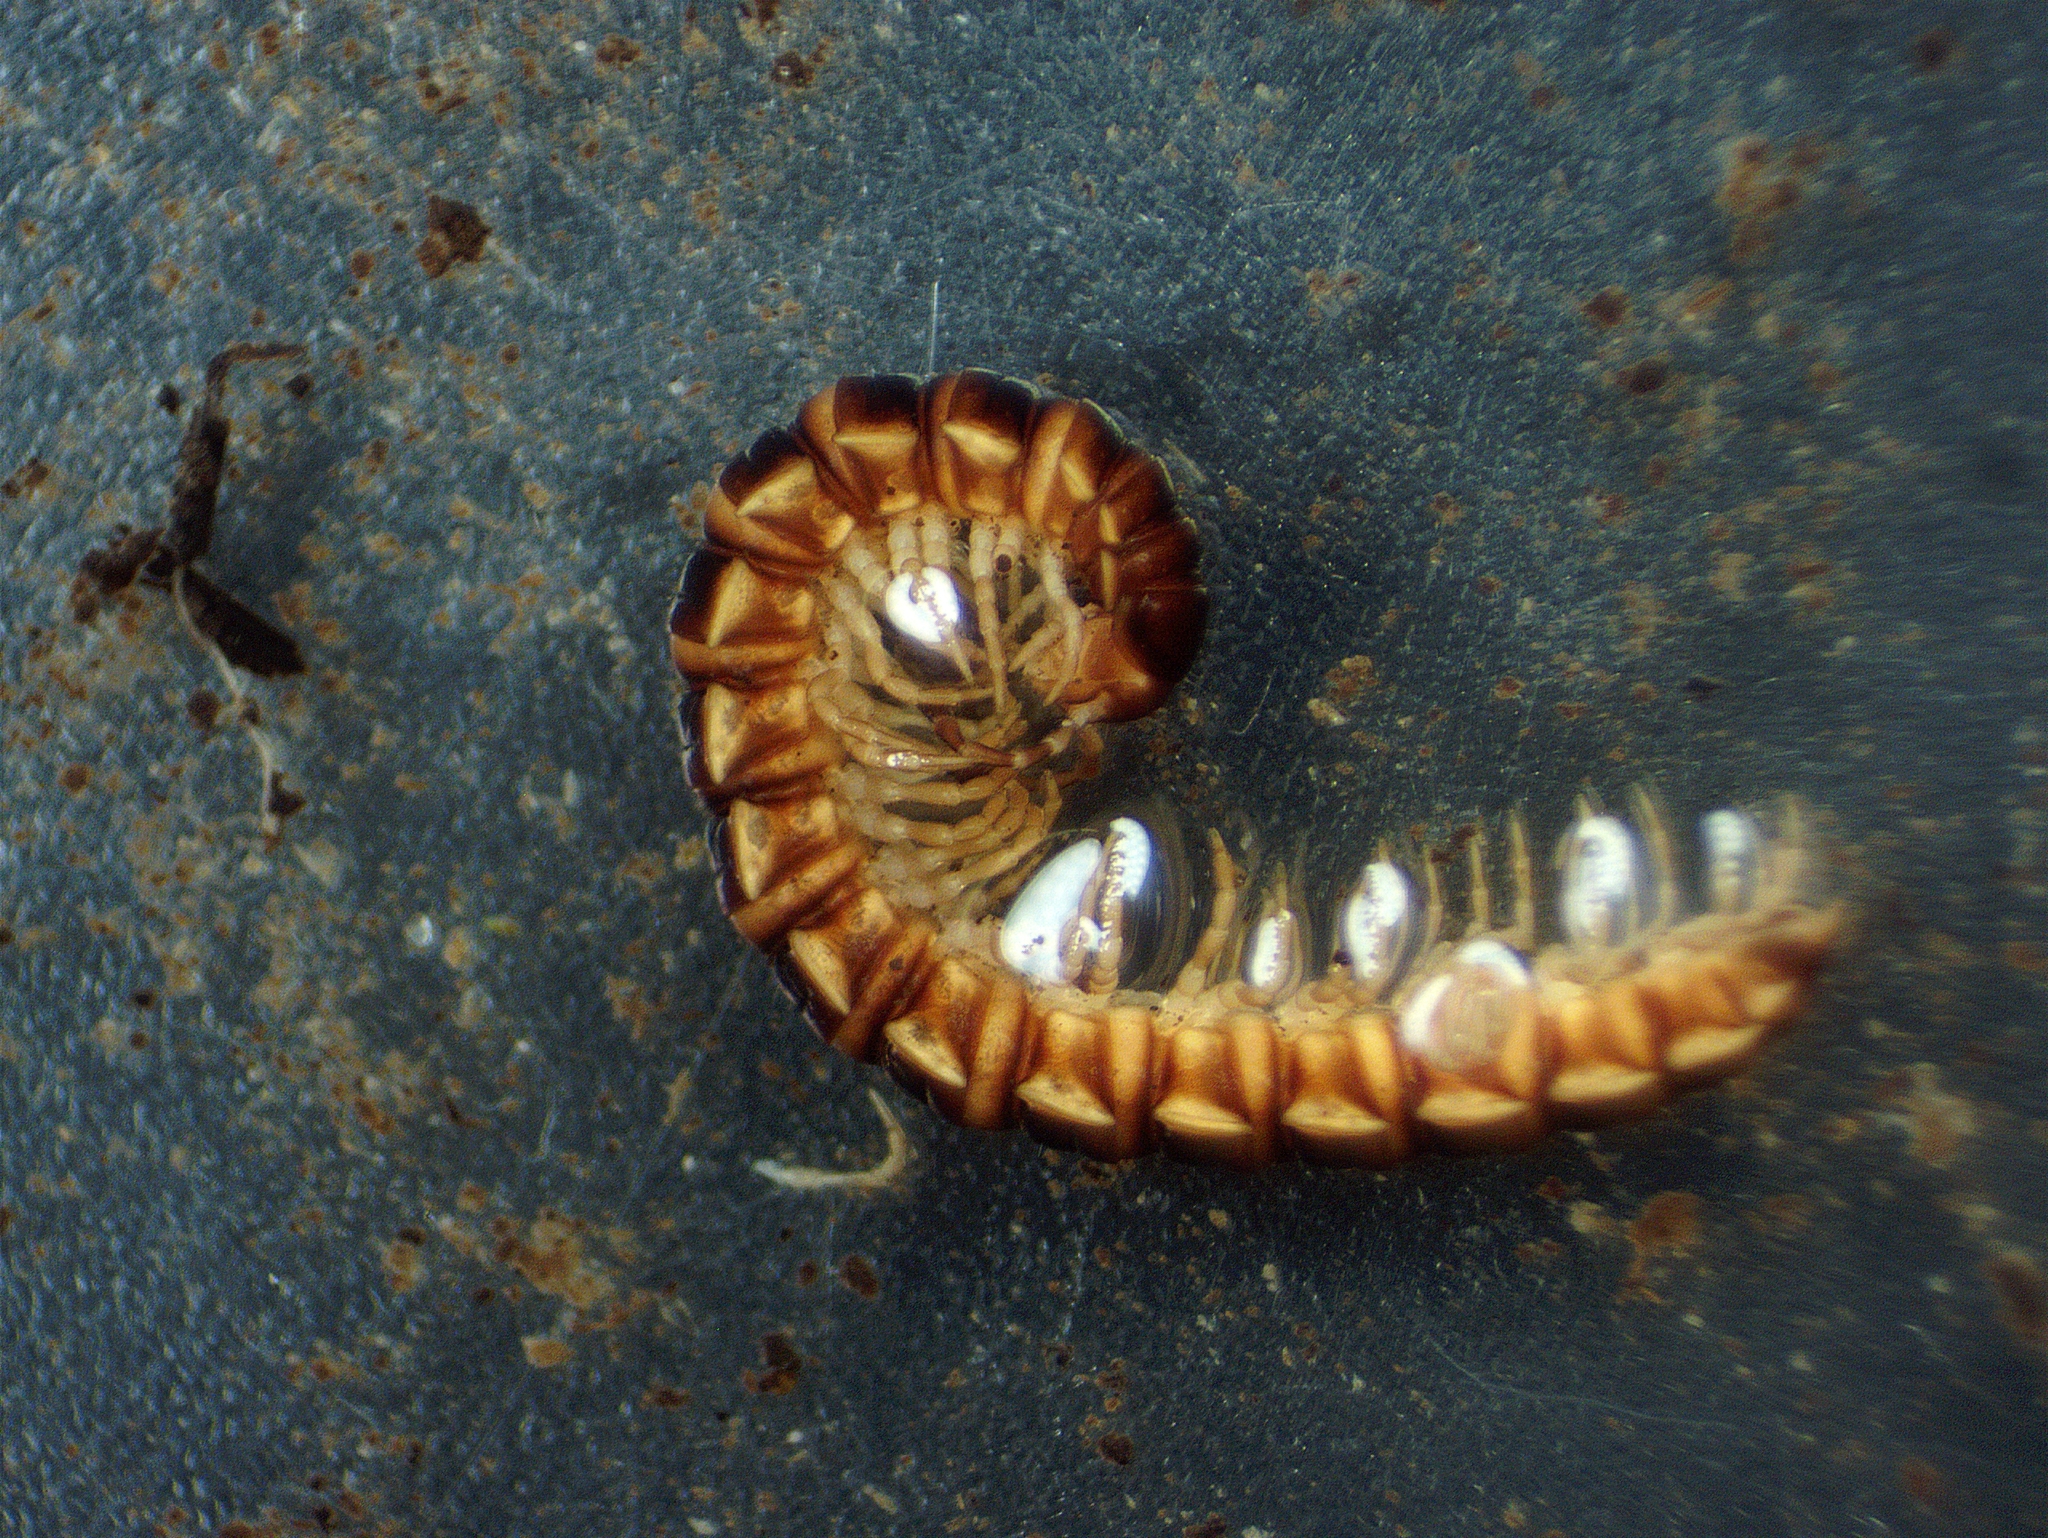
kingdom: Animalia
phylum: Arthropoda
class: Diplopoda
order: Polydesmida
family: Paradoxosomatidae
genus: Oxidus
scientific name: Oxidus gracilis
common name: Greenhouse millipede
